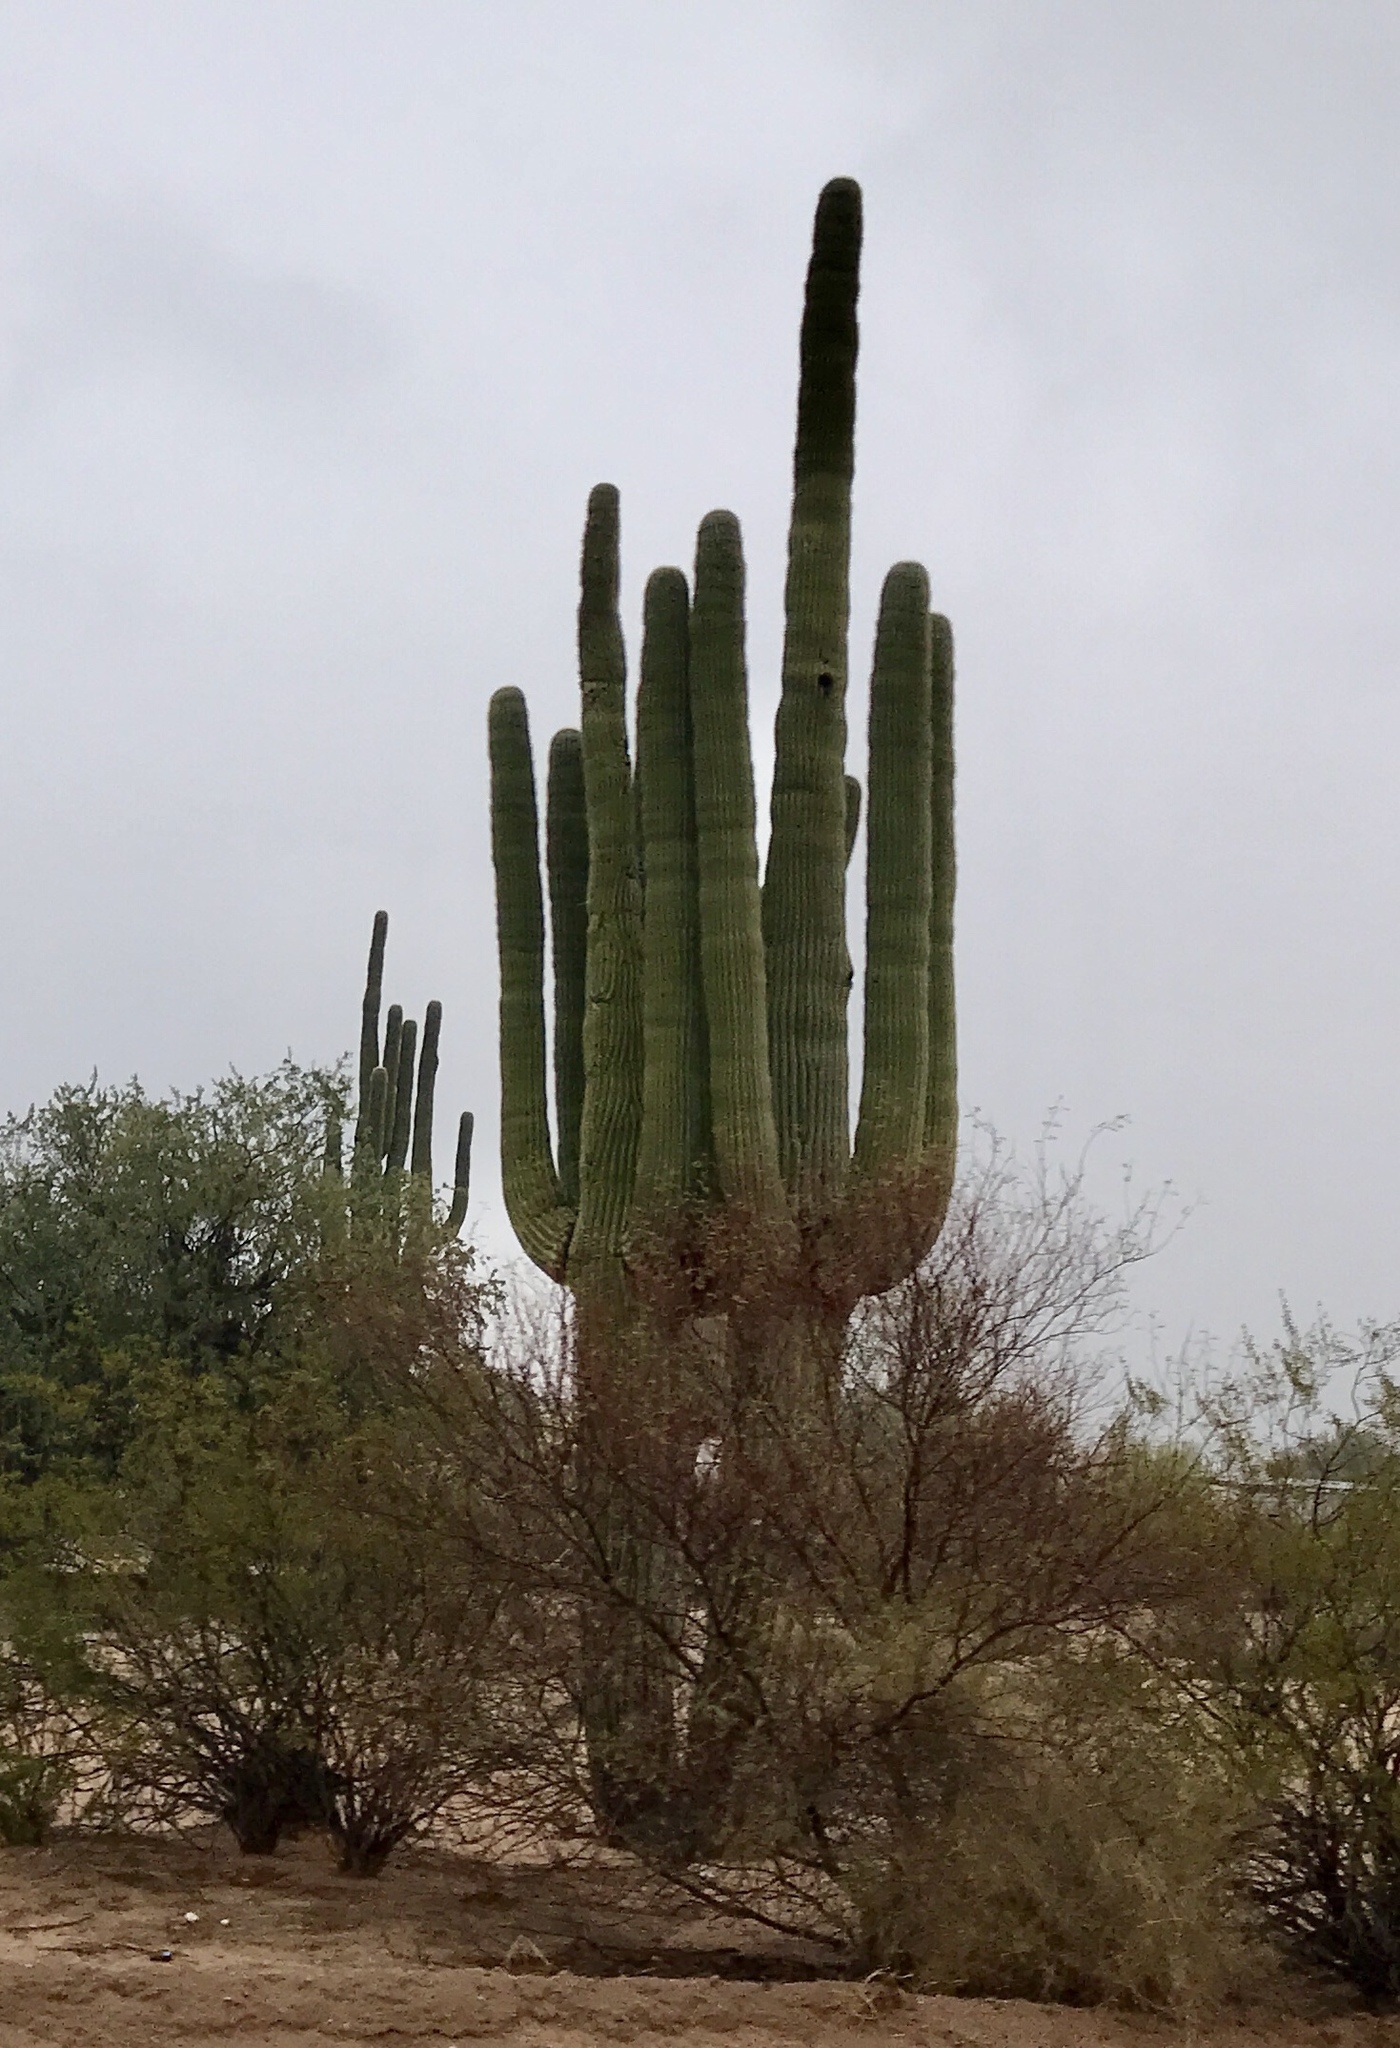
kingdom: Plantae
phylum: Tracheophyta
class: Magnoliopsida
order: Caryophyllales
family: Cactaceae
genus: Carnegiea
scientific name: Carnegiea gigantea
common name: Saguaro
